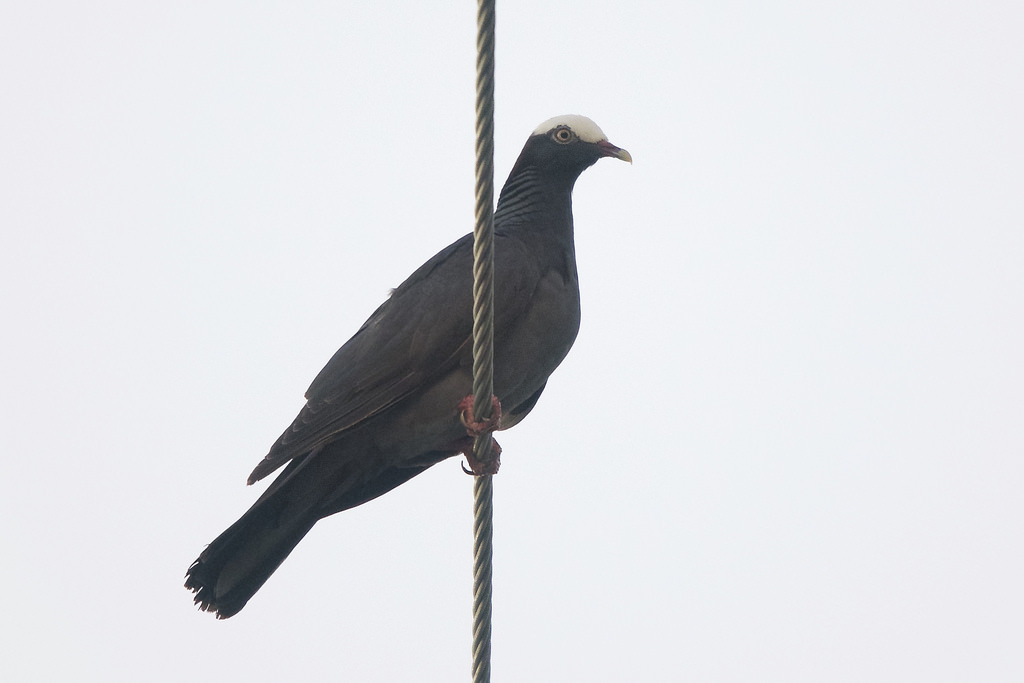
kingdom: Animalia
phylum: Chordata
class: Aves
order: Columbiformes
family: Columbidae
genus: Patagioenas
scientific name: Patagioenas leucocephala
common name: White-crowned pigeon
